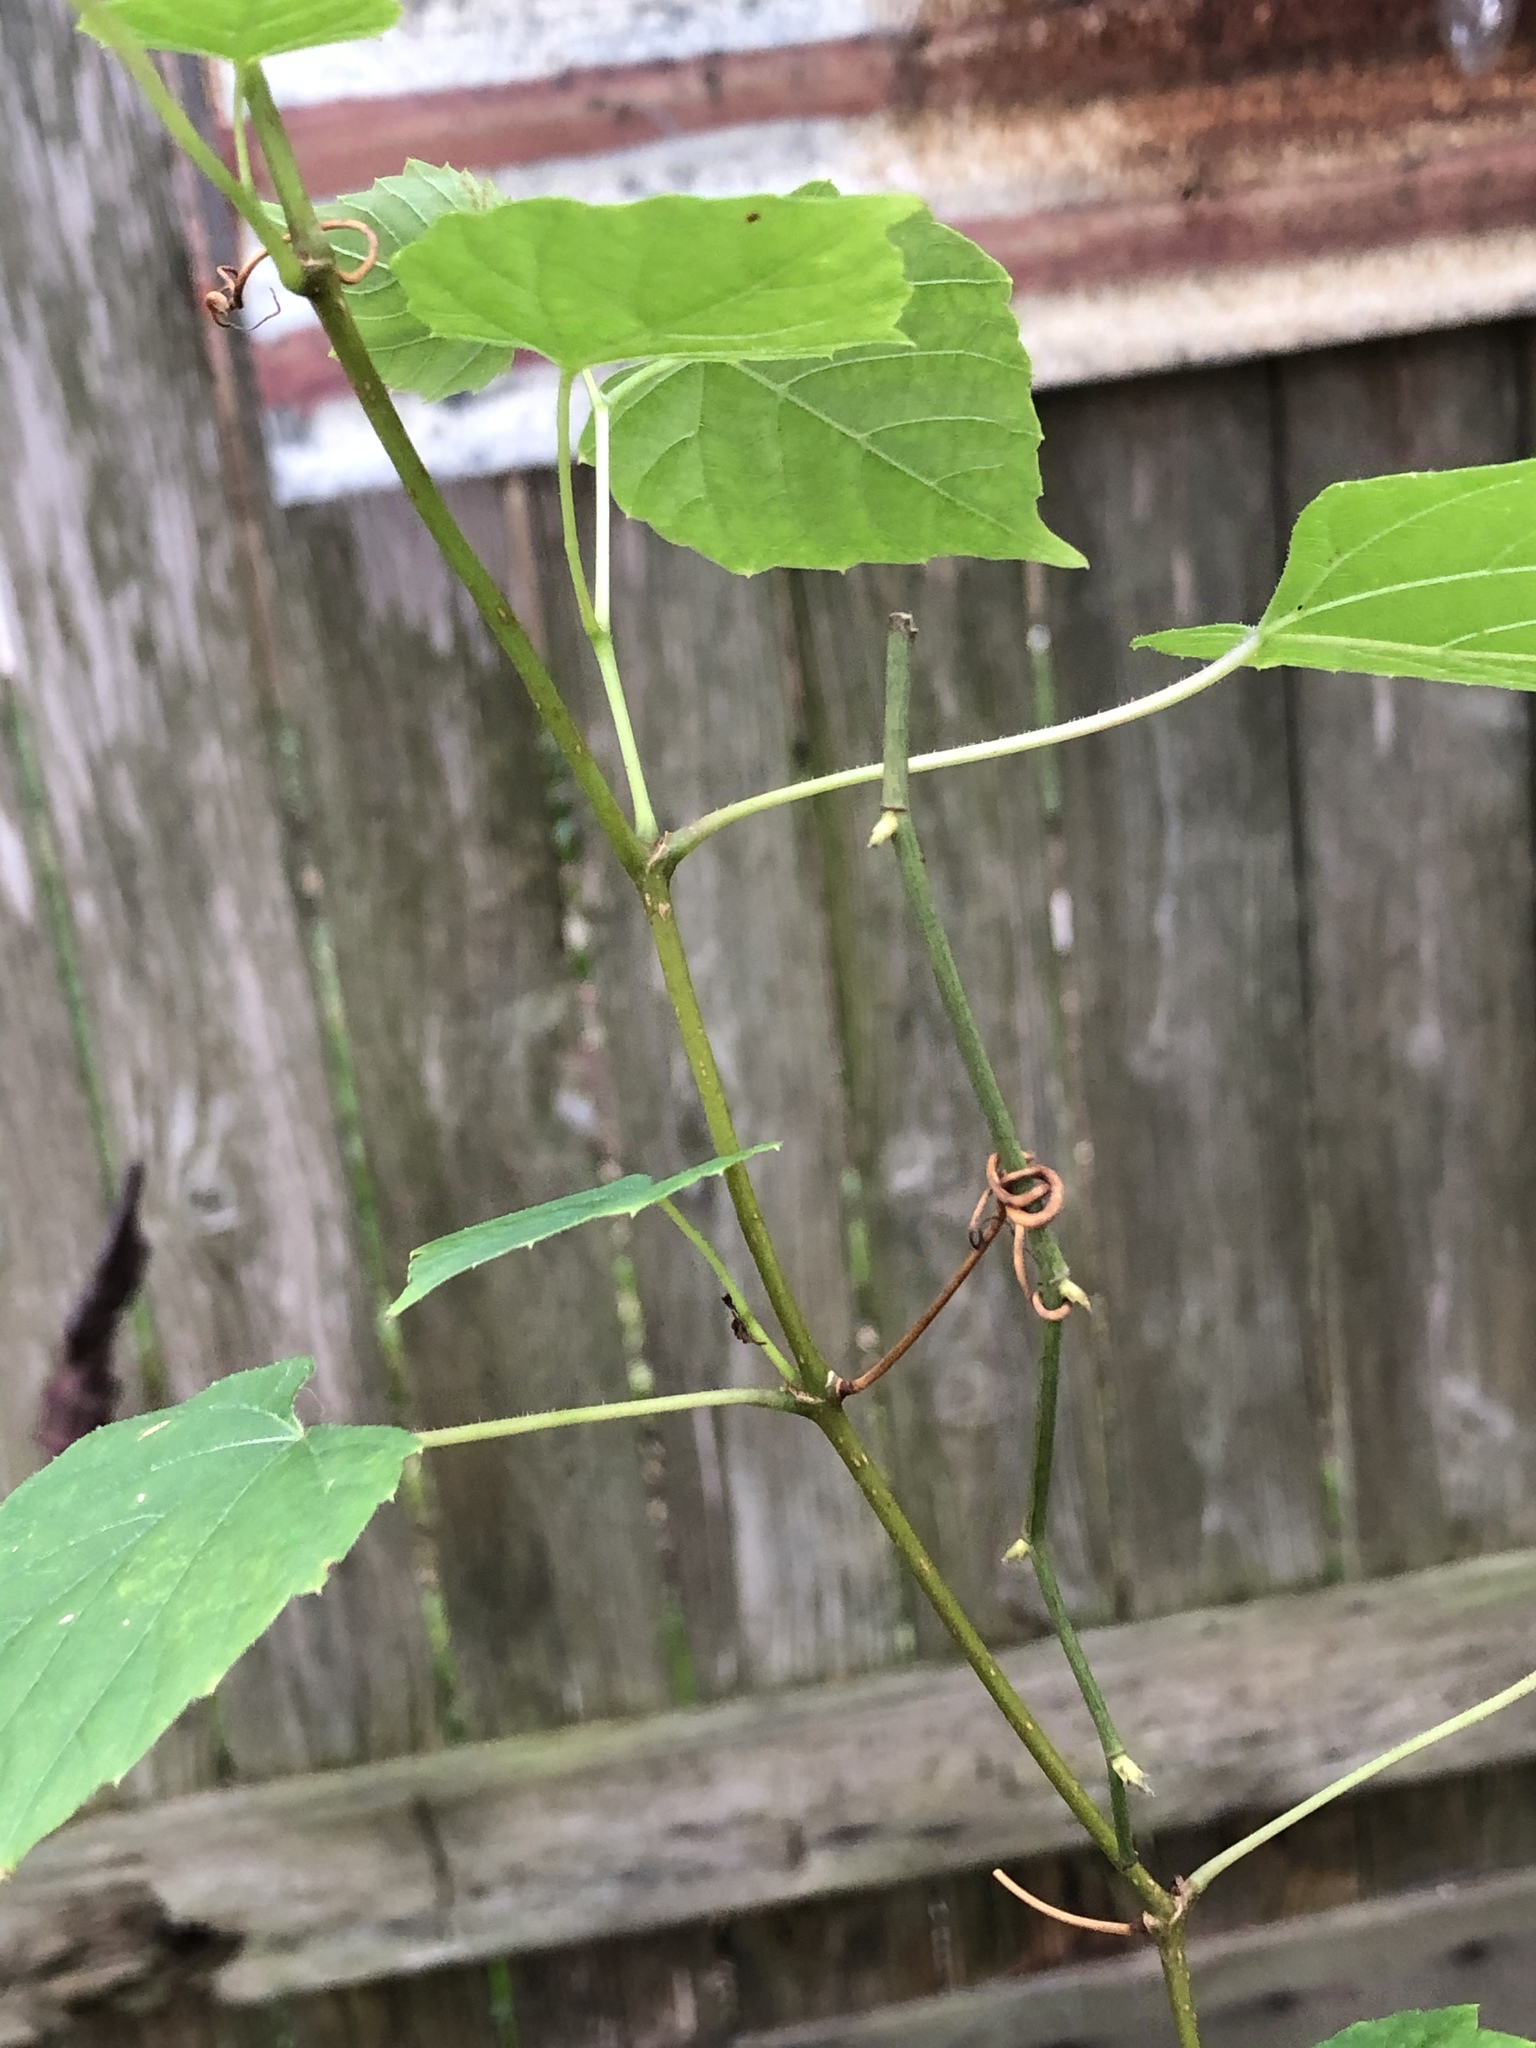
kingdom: Plantae
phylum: Tracheophyta
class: Magnoliopsida
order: Vitales
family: Vitaceae
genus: Ampelopsis
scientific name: Ampelopsis cordata
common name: Heart-leaf ampelopsis
